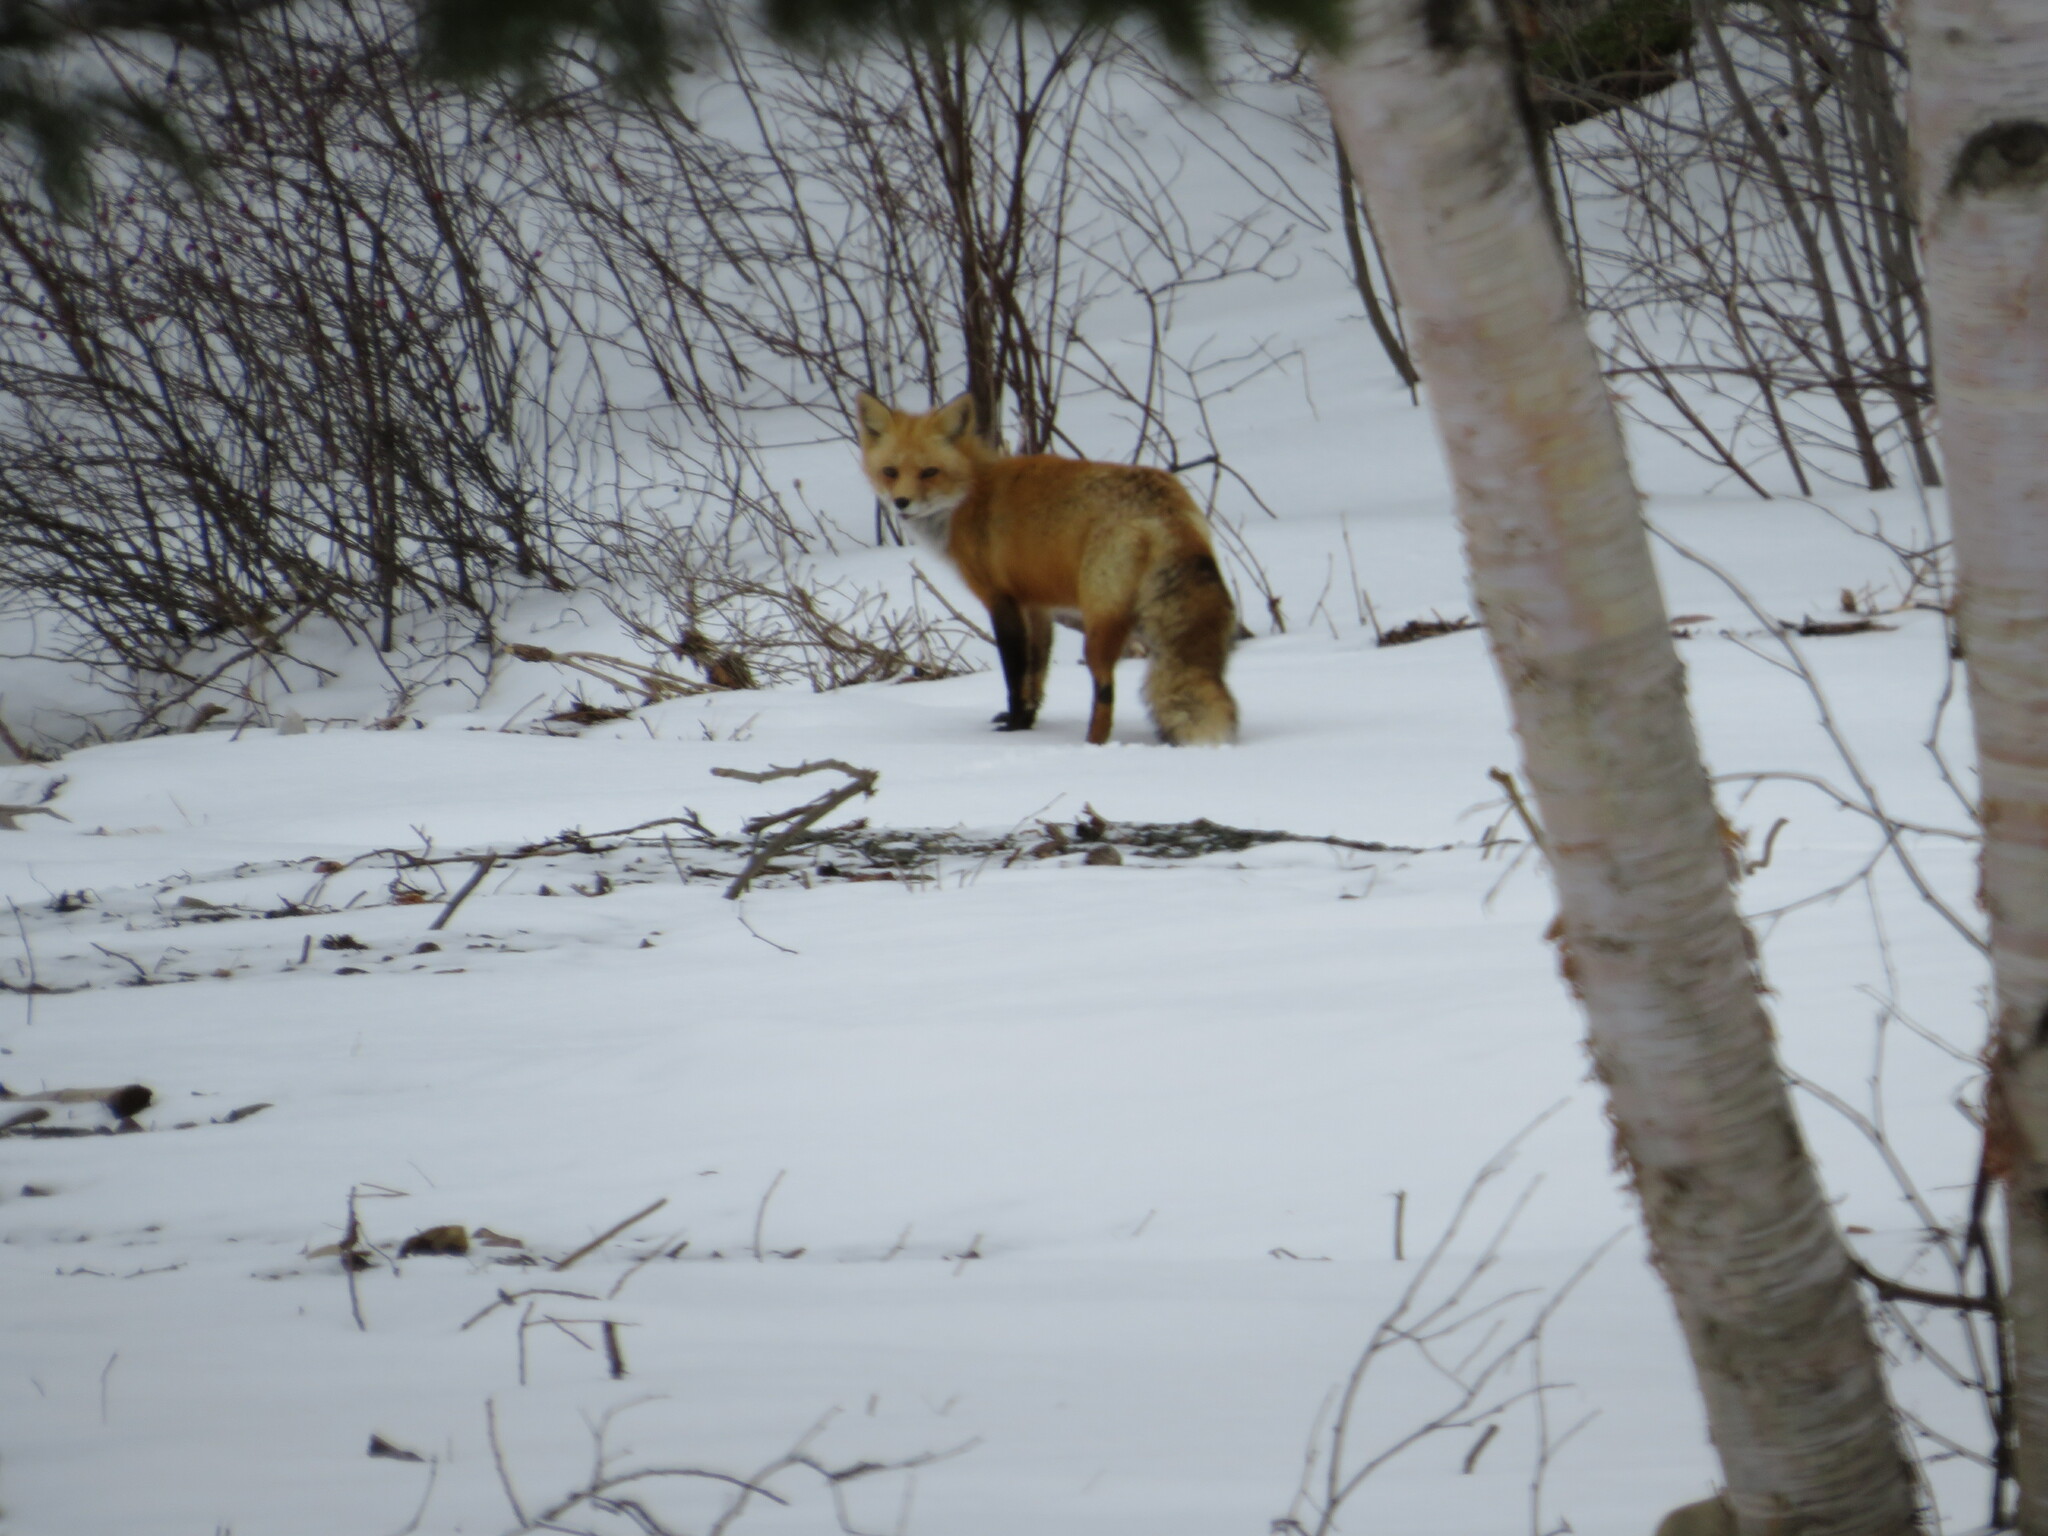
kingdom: Animalia
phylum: Chordata
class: Mammalia
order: Carnivora
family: Canidae
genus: Vulpes
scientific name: Vulpes vulpes
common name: Red fox
